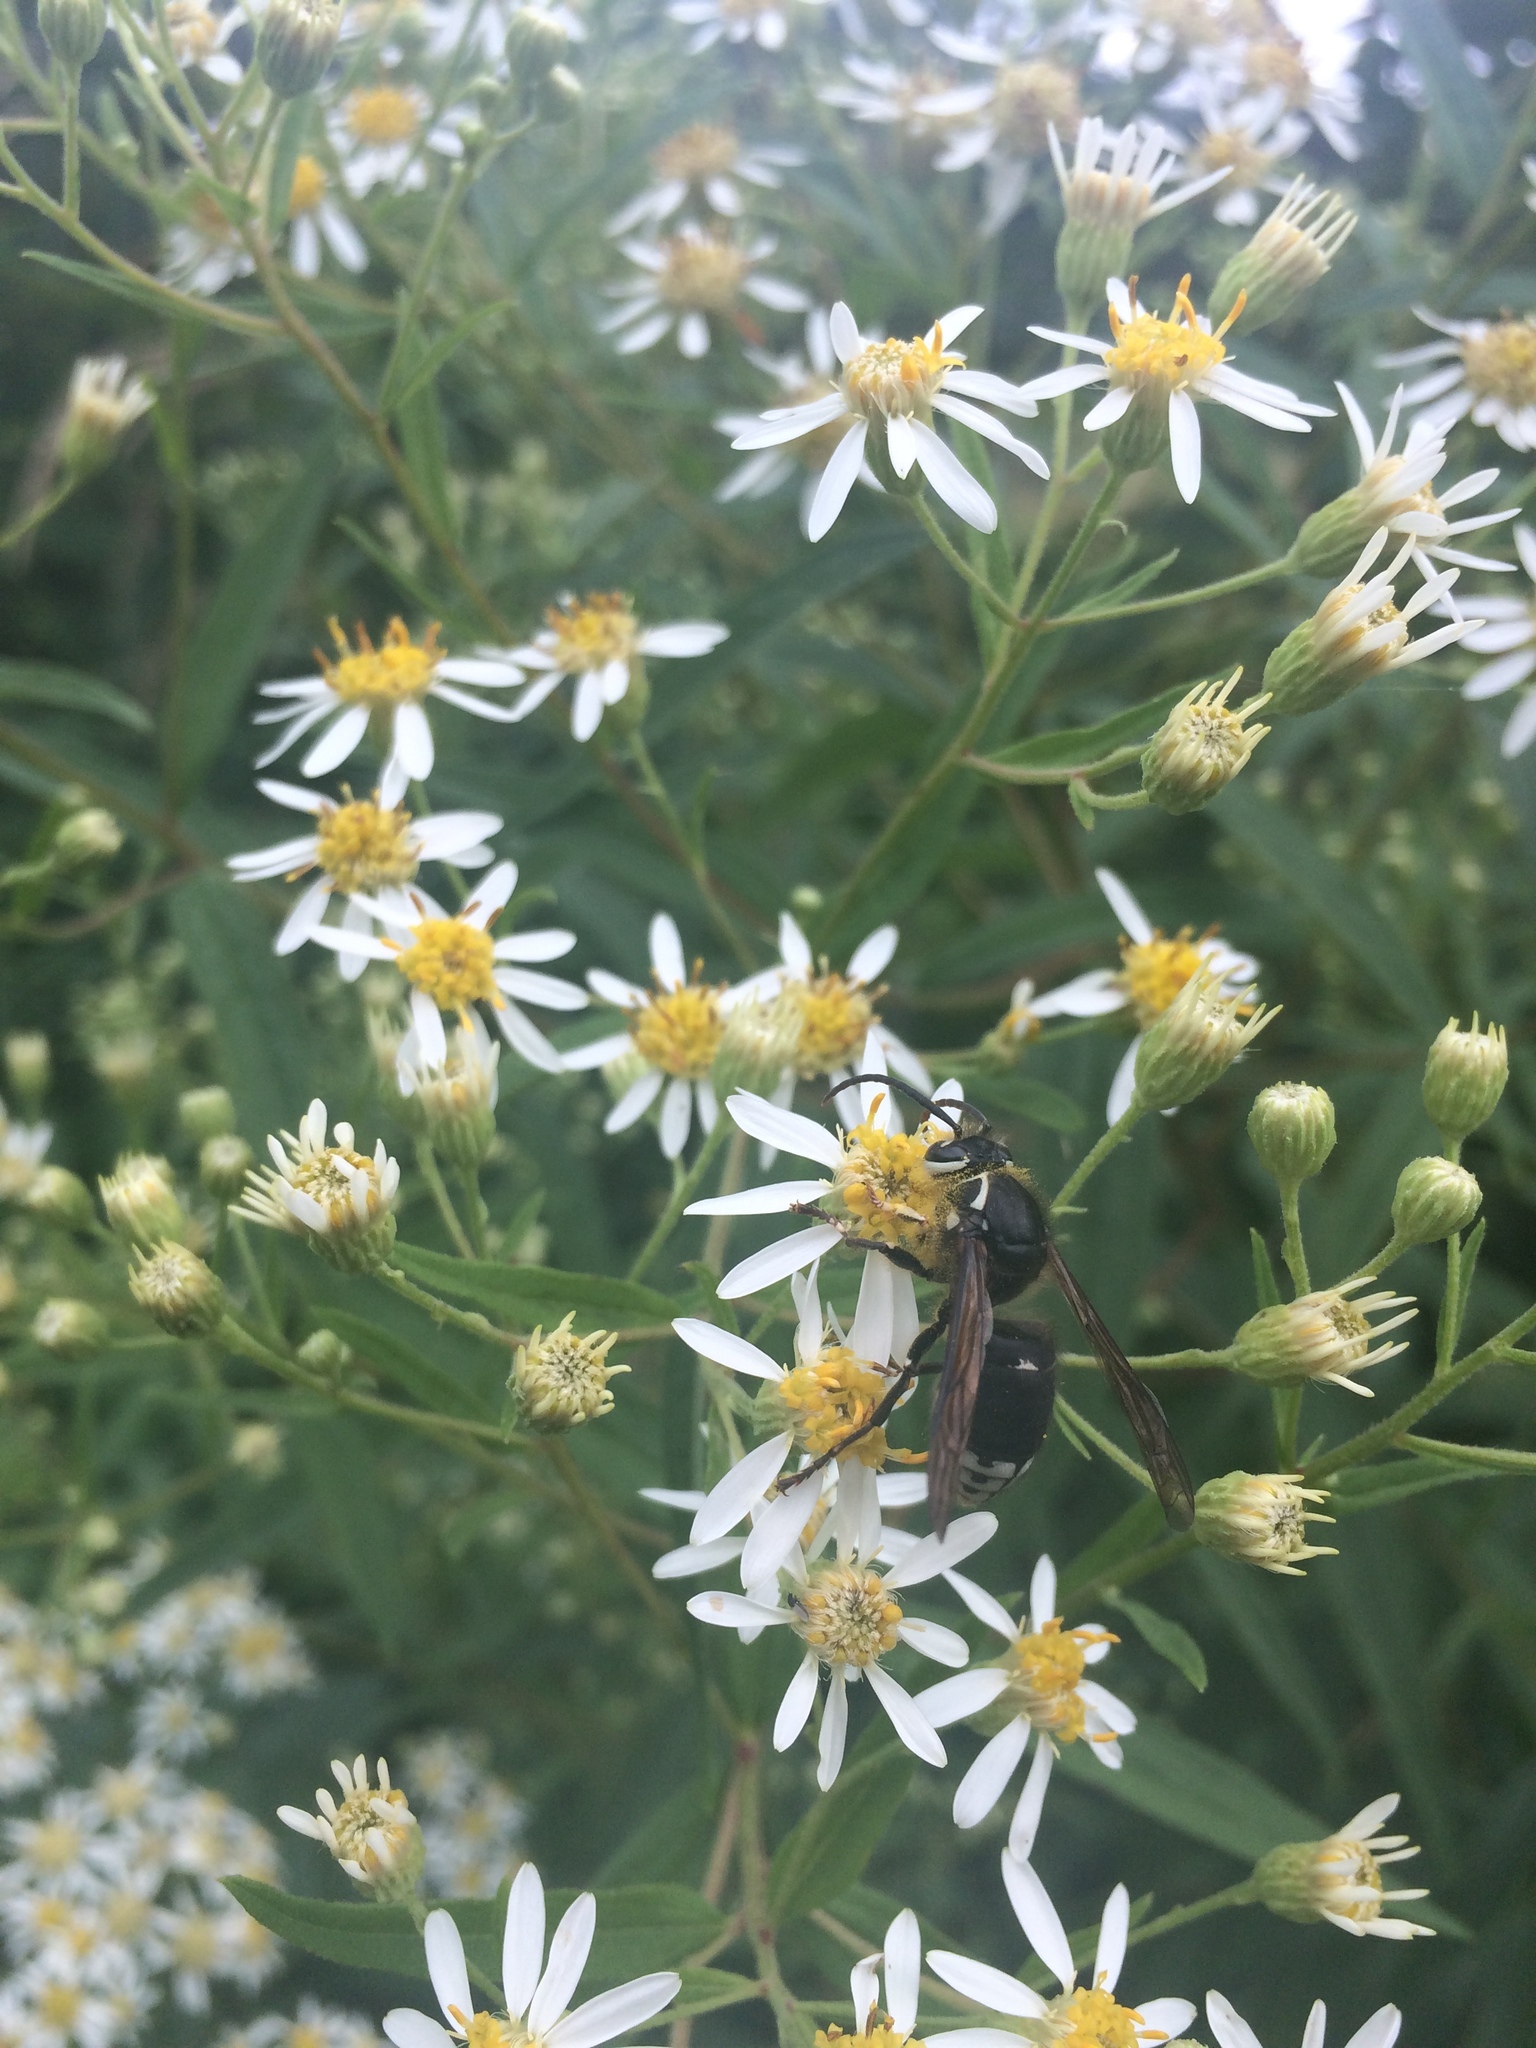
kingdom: Animalia
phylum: Arthropoda
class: Insecta
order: Hymenoptera
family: Vespidae
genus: Dolichovespula
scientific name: Dolichovespula maculata
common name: Bald-faced hornet
